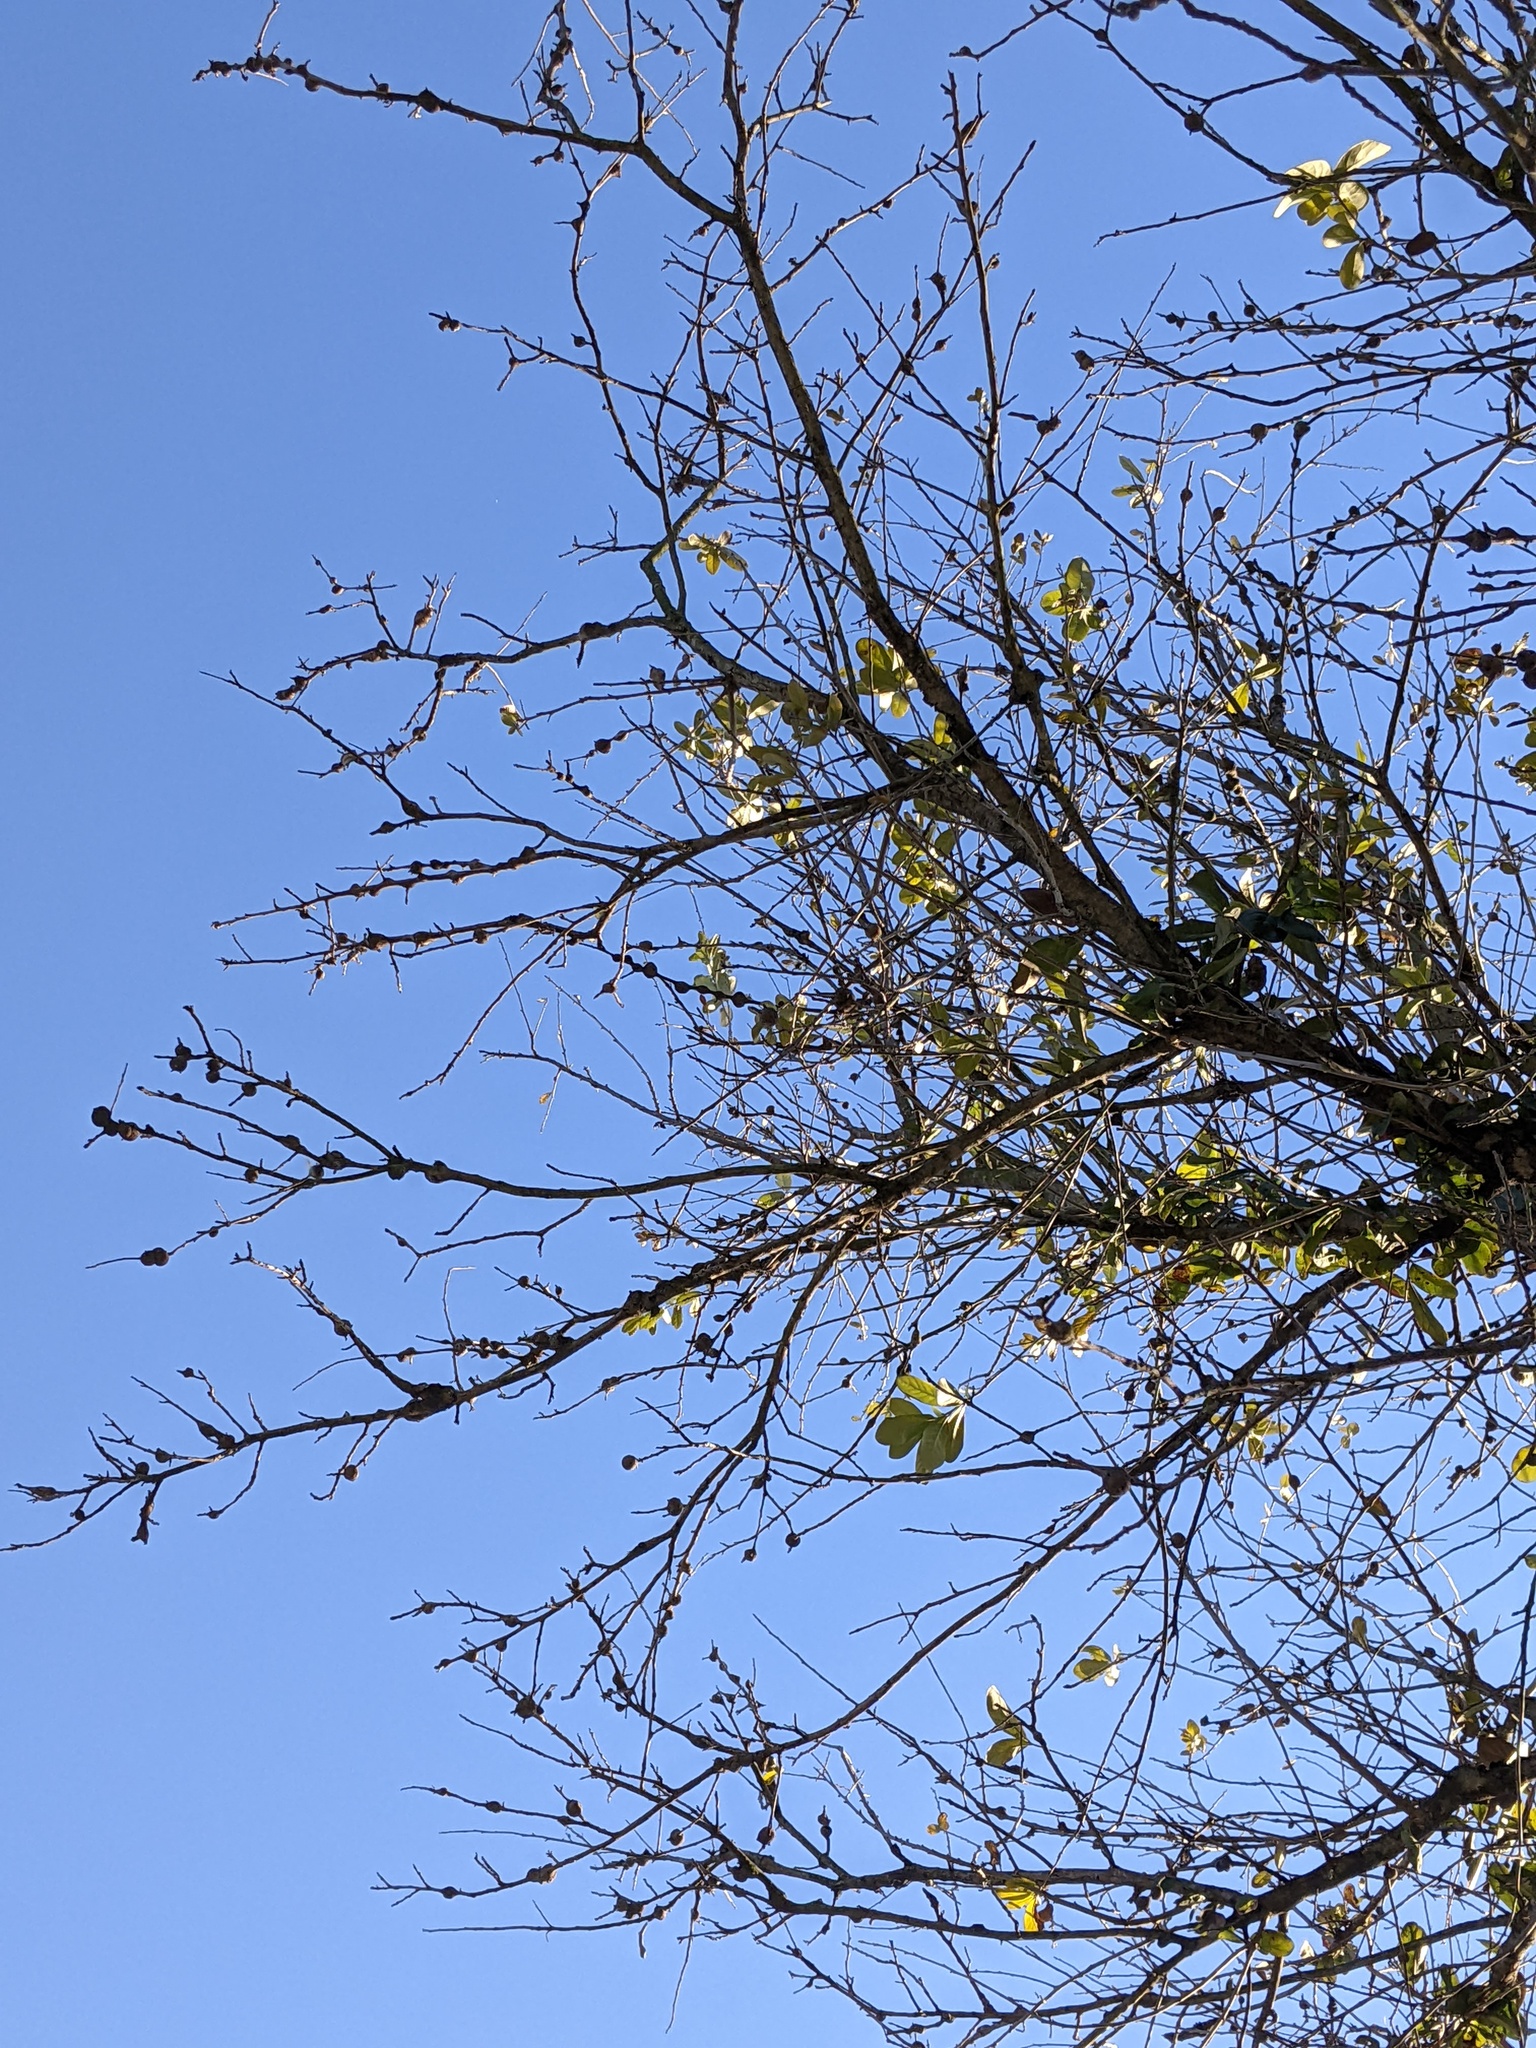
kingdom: Animalia
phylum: Arthropoda
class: Insecta
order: Hymenoptera
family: Cynipidae
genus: Callirhytis
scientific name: Callirhytis
